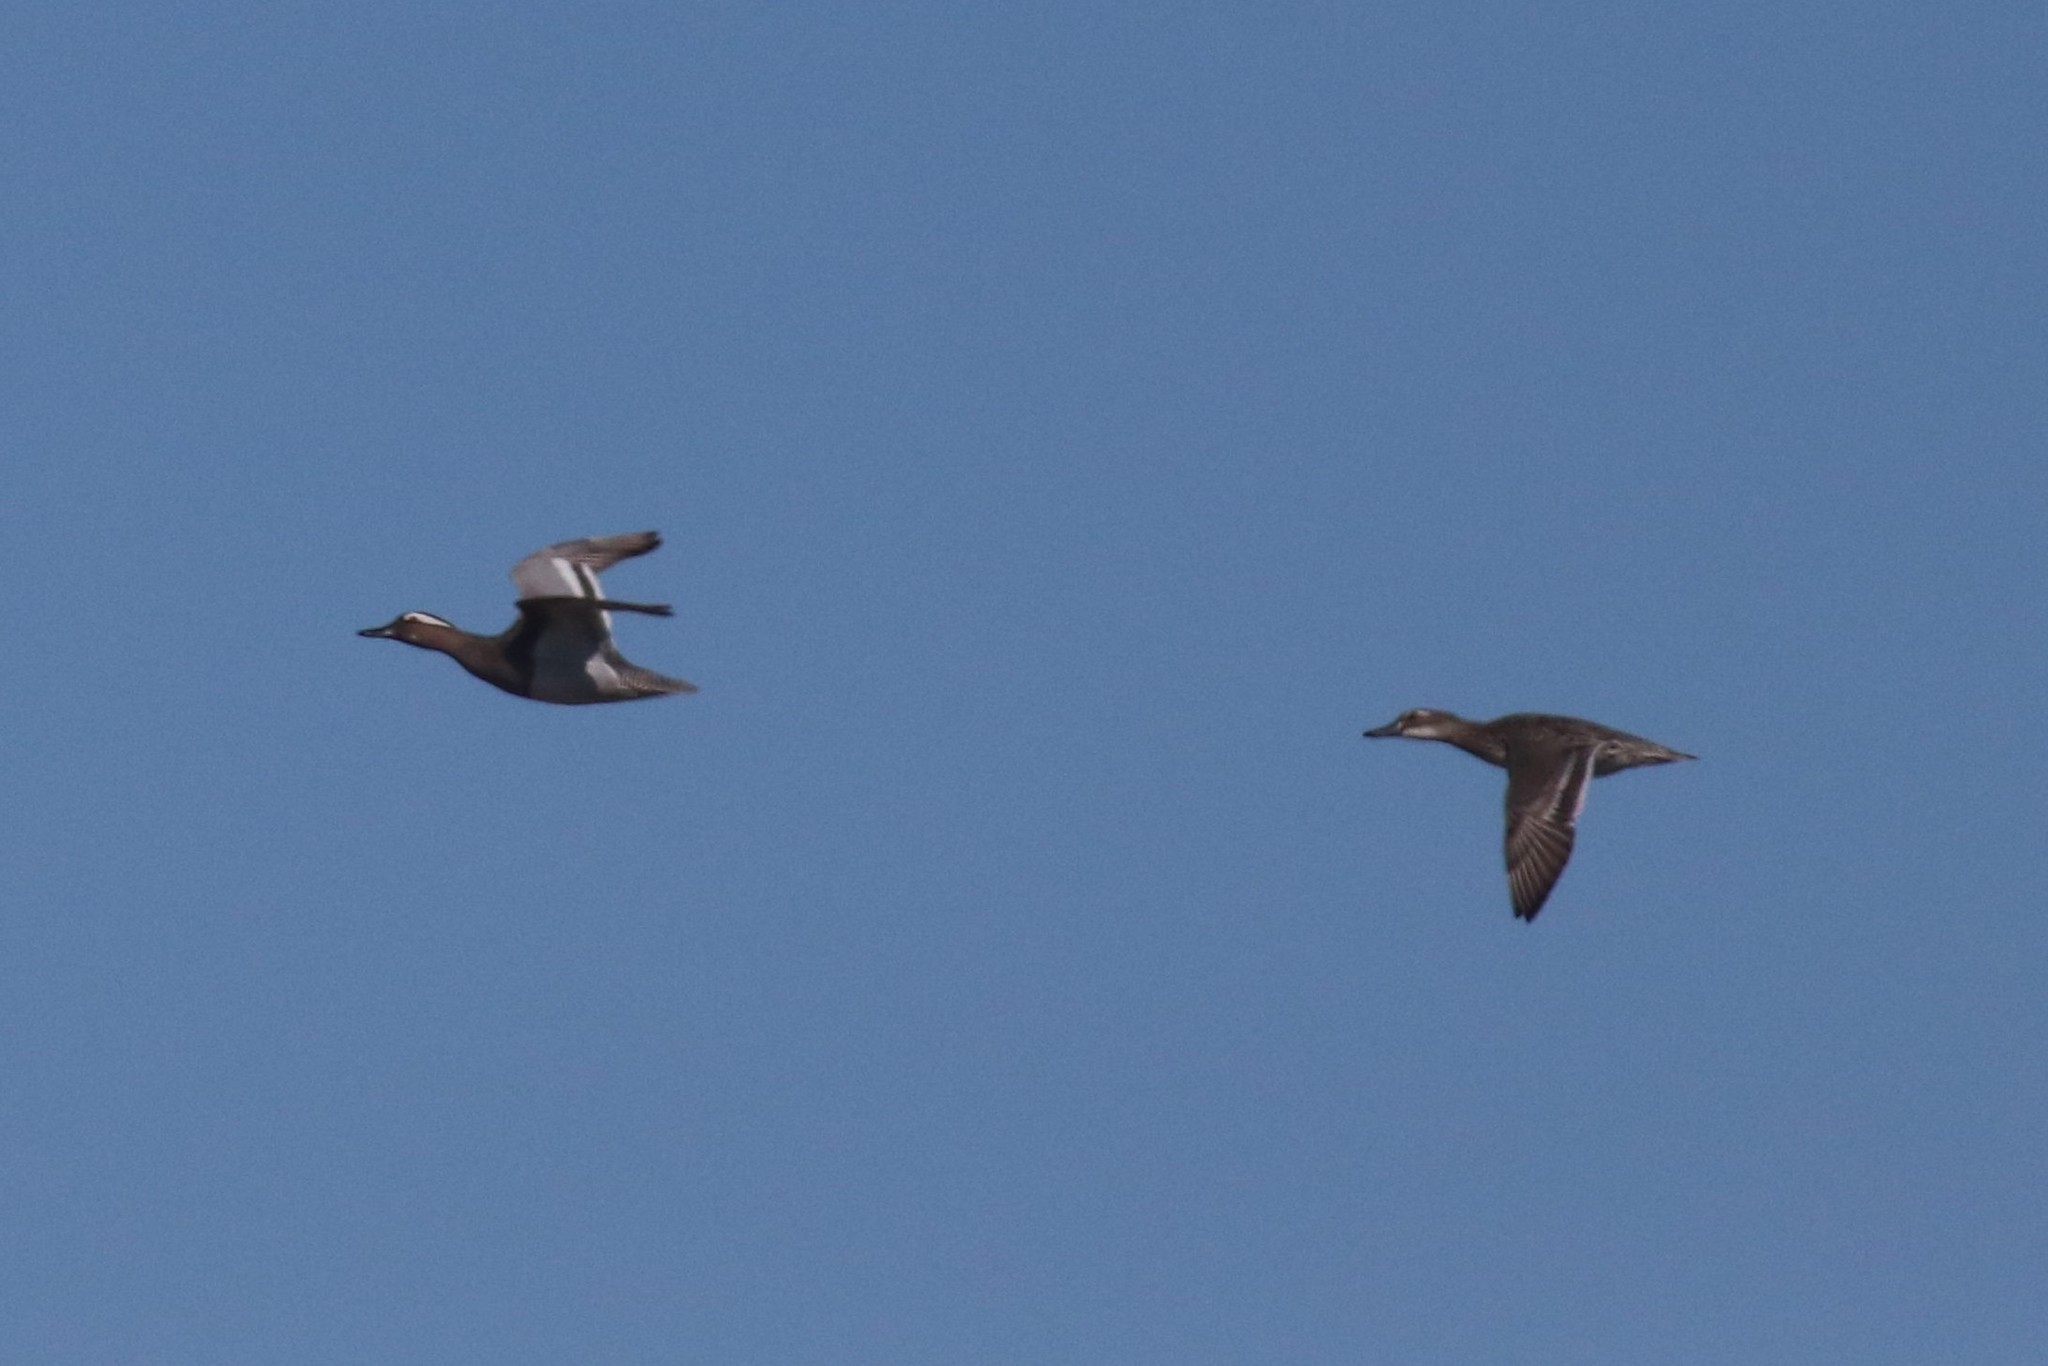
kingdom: Animalia
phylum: Chordata
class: Aves
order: Anseriformes
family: Anatidae
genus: Spatula
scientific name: Spatula querquedula
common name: Garganey
